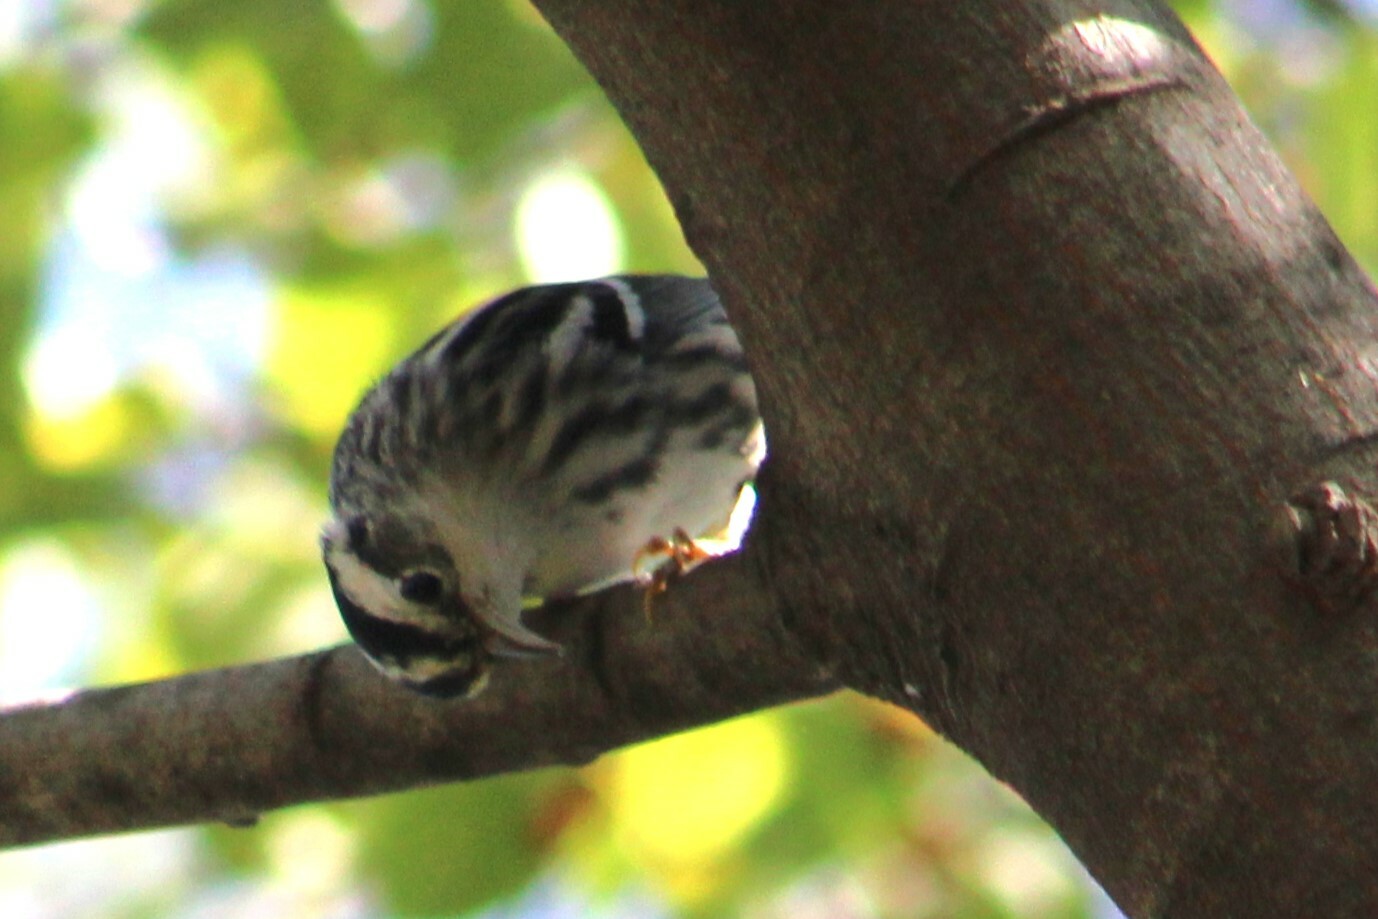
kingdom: Animalia
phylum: Chordata
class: Aves
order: Passeriformes
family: Parulidae
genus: Mniotilta
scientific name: Mniotilta varia
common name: Black-and-white warbler
